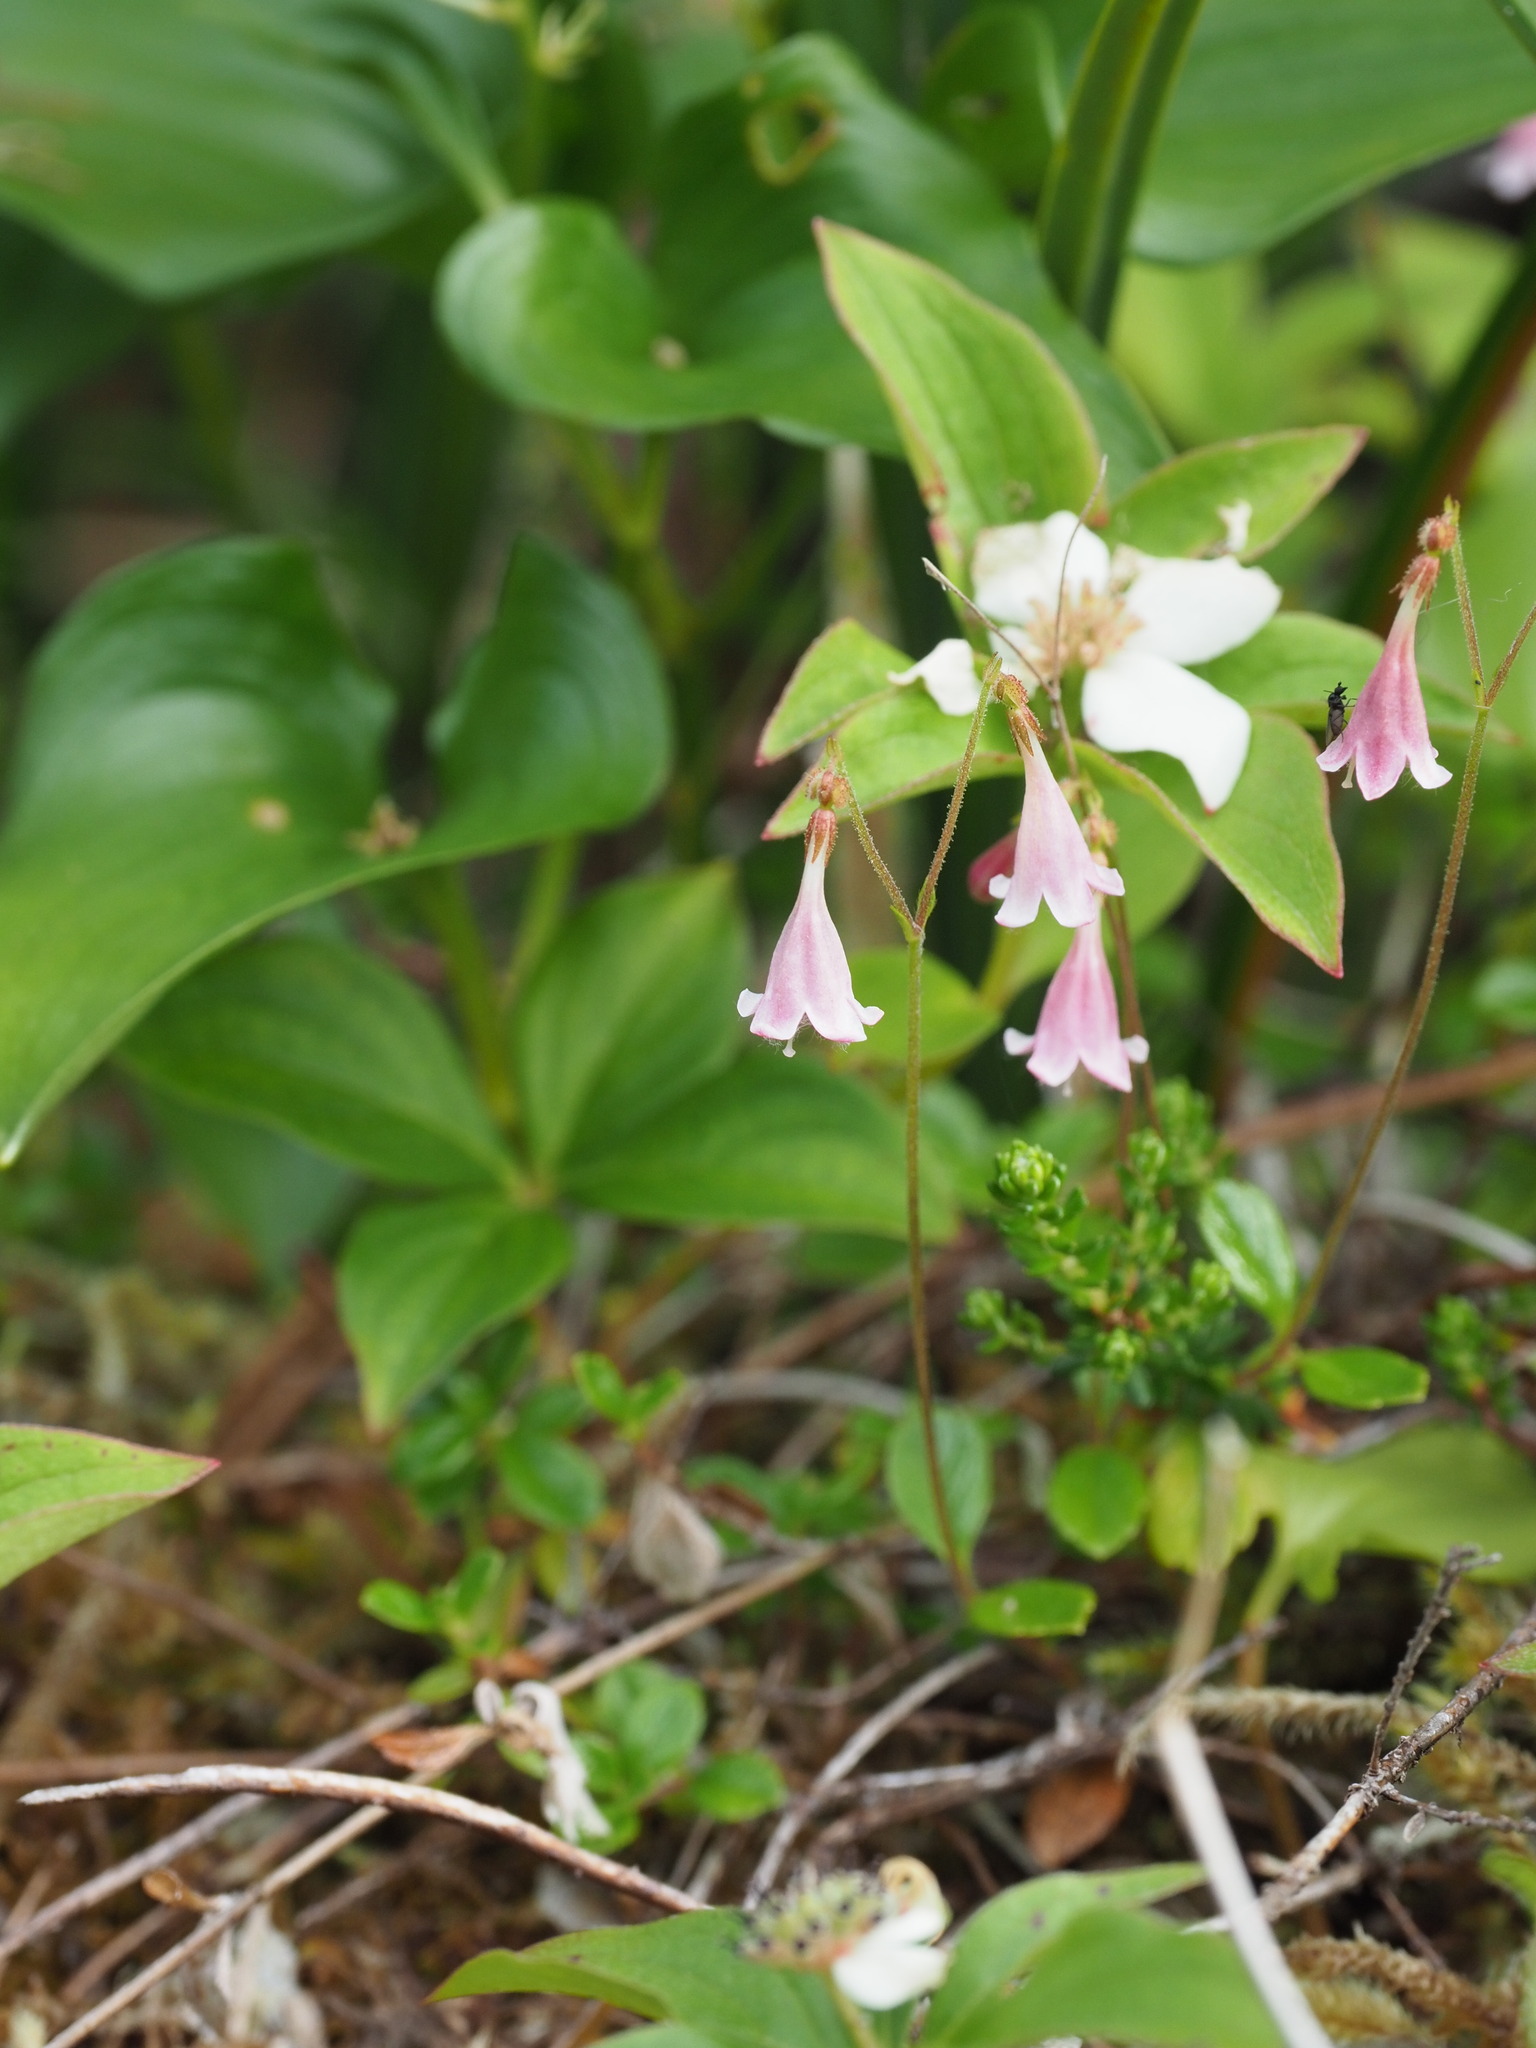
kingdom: Plantae
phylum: Tracheophyta
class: Magnoliopsida
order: Dipsacales
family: Caprifoliaceae
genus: Linnaea
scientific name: Linnaea borealis
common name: Twinflower
